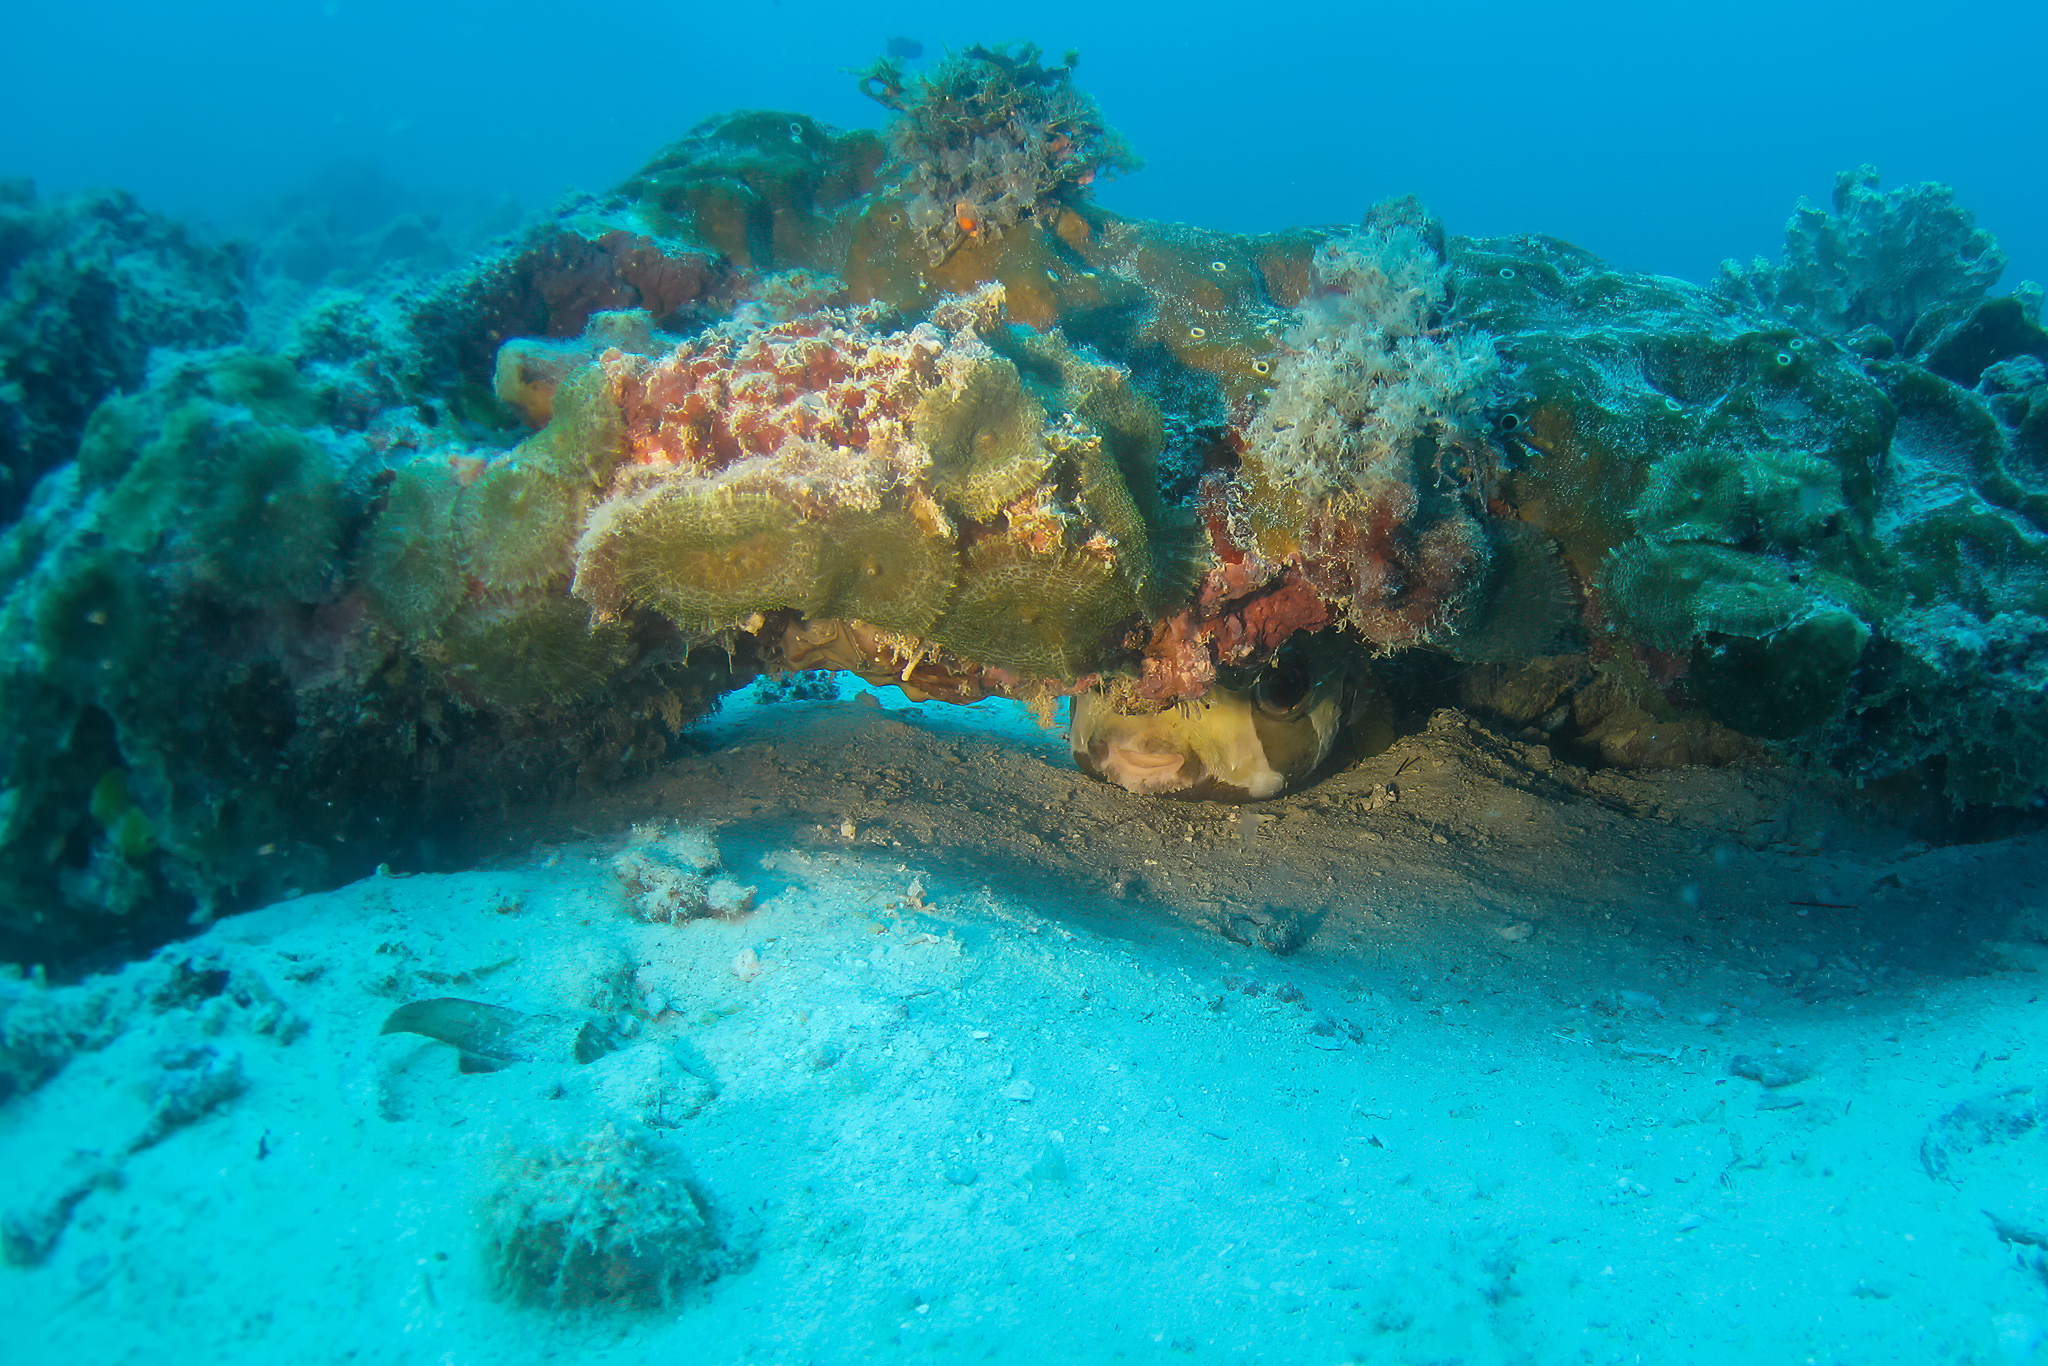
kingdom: Animalia
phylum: Chordata
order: Tetraodontiformes
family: Diodontidae
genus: Diodon
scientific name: Diodon liturosus
